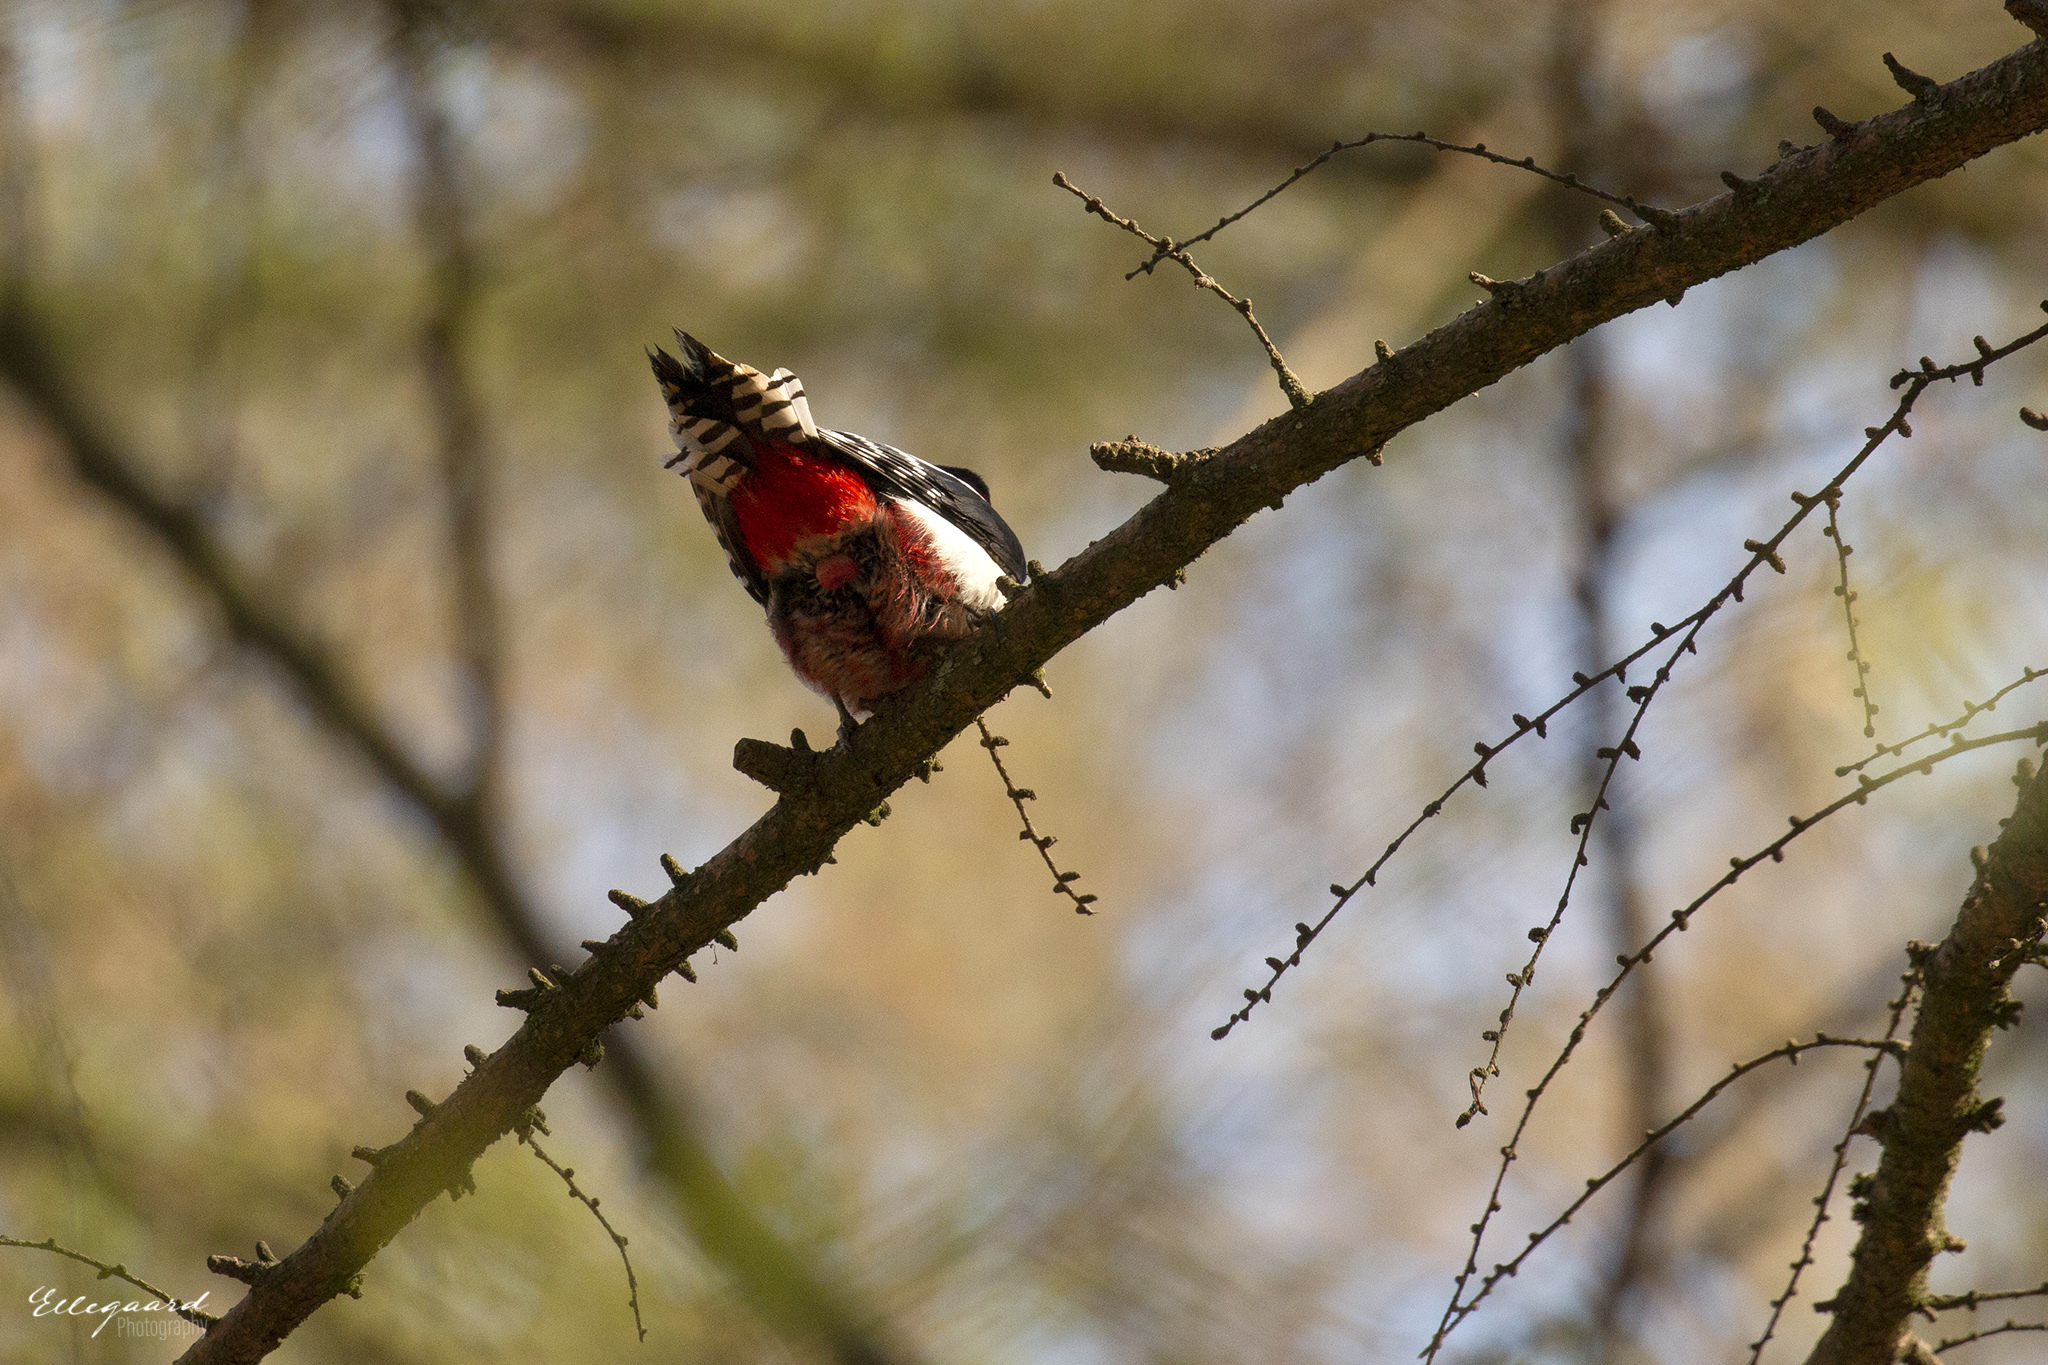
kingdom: Animalia
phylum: Chordata
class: Aves
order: Piciformes
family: Picidae
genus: Dendrocopos
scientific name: Dendrocopos major
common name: Great spotted woodpecker
